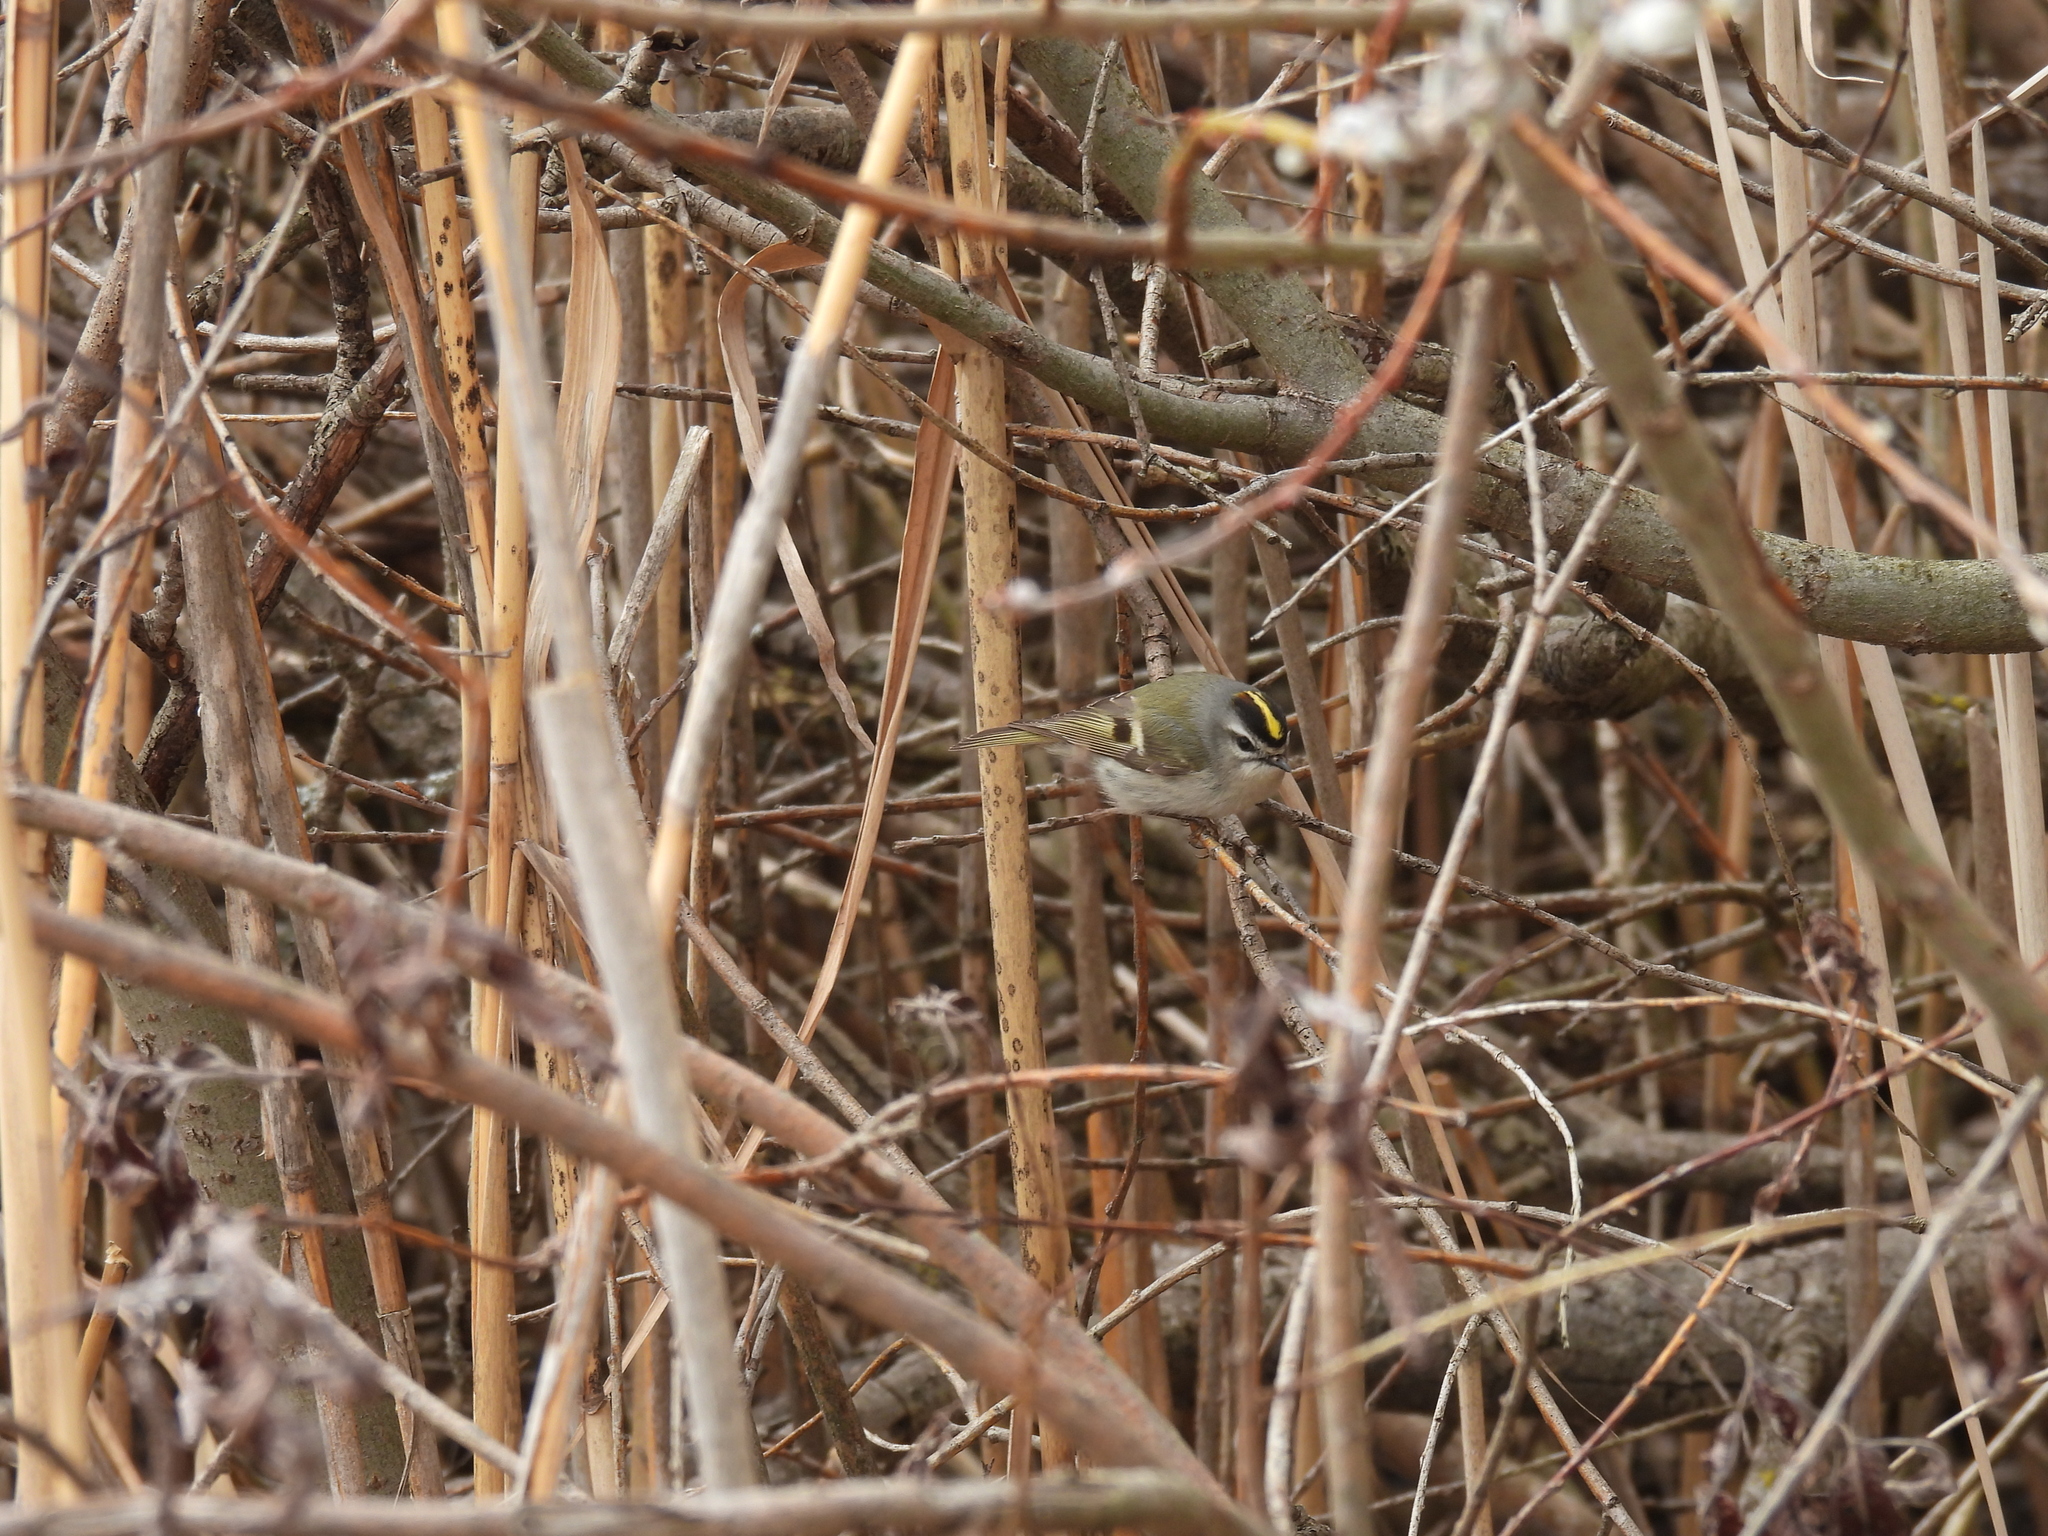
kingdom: Animalia
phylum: Chordata
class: Aves
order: Passeriformes
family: Regulidae
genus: Regulus
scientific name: Regulus satrapa
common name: Golden-crowned kinglet
